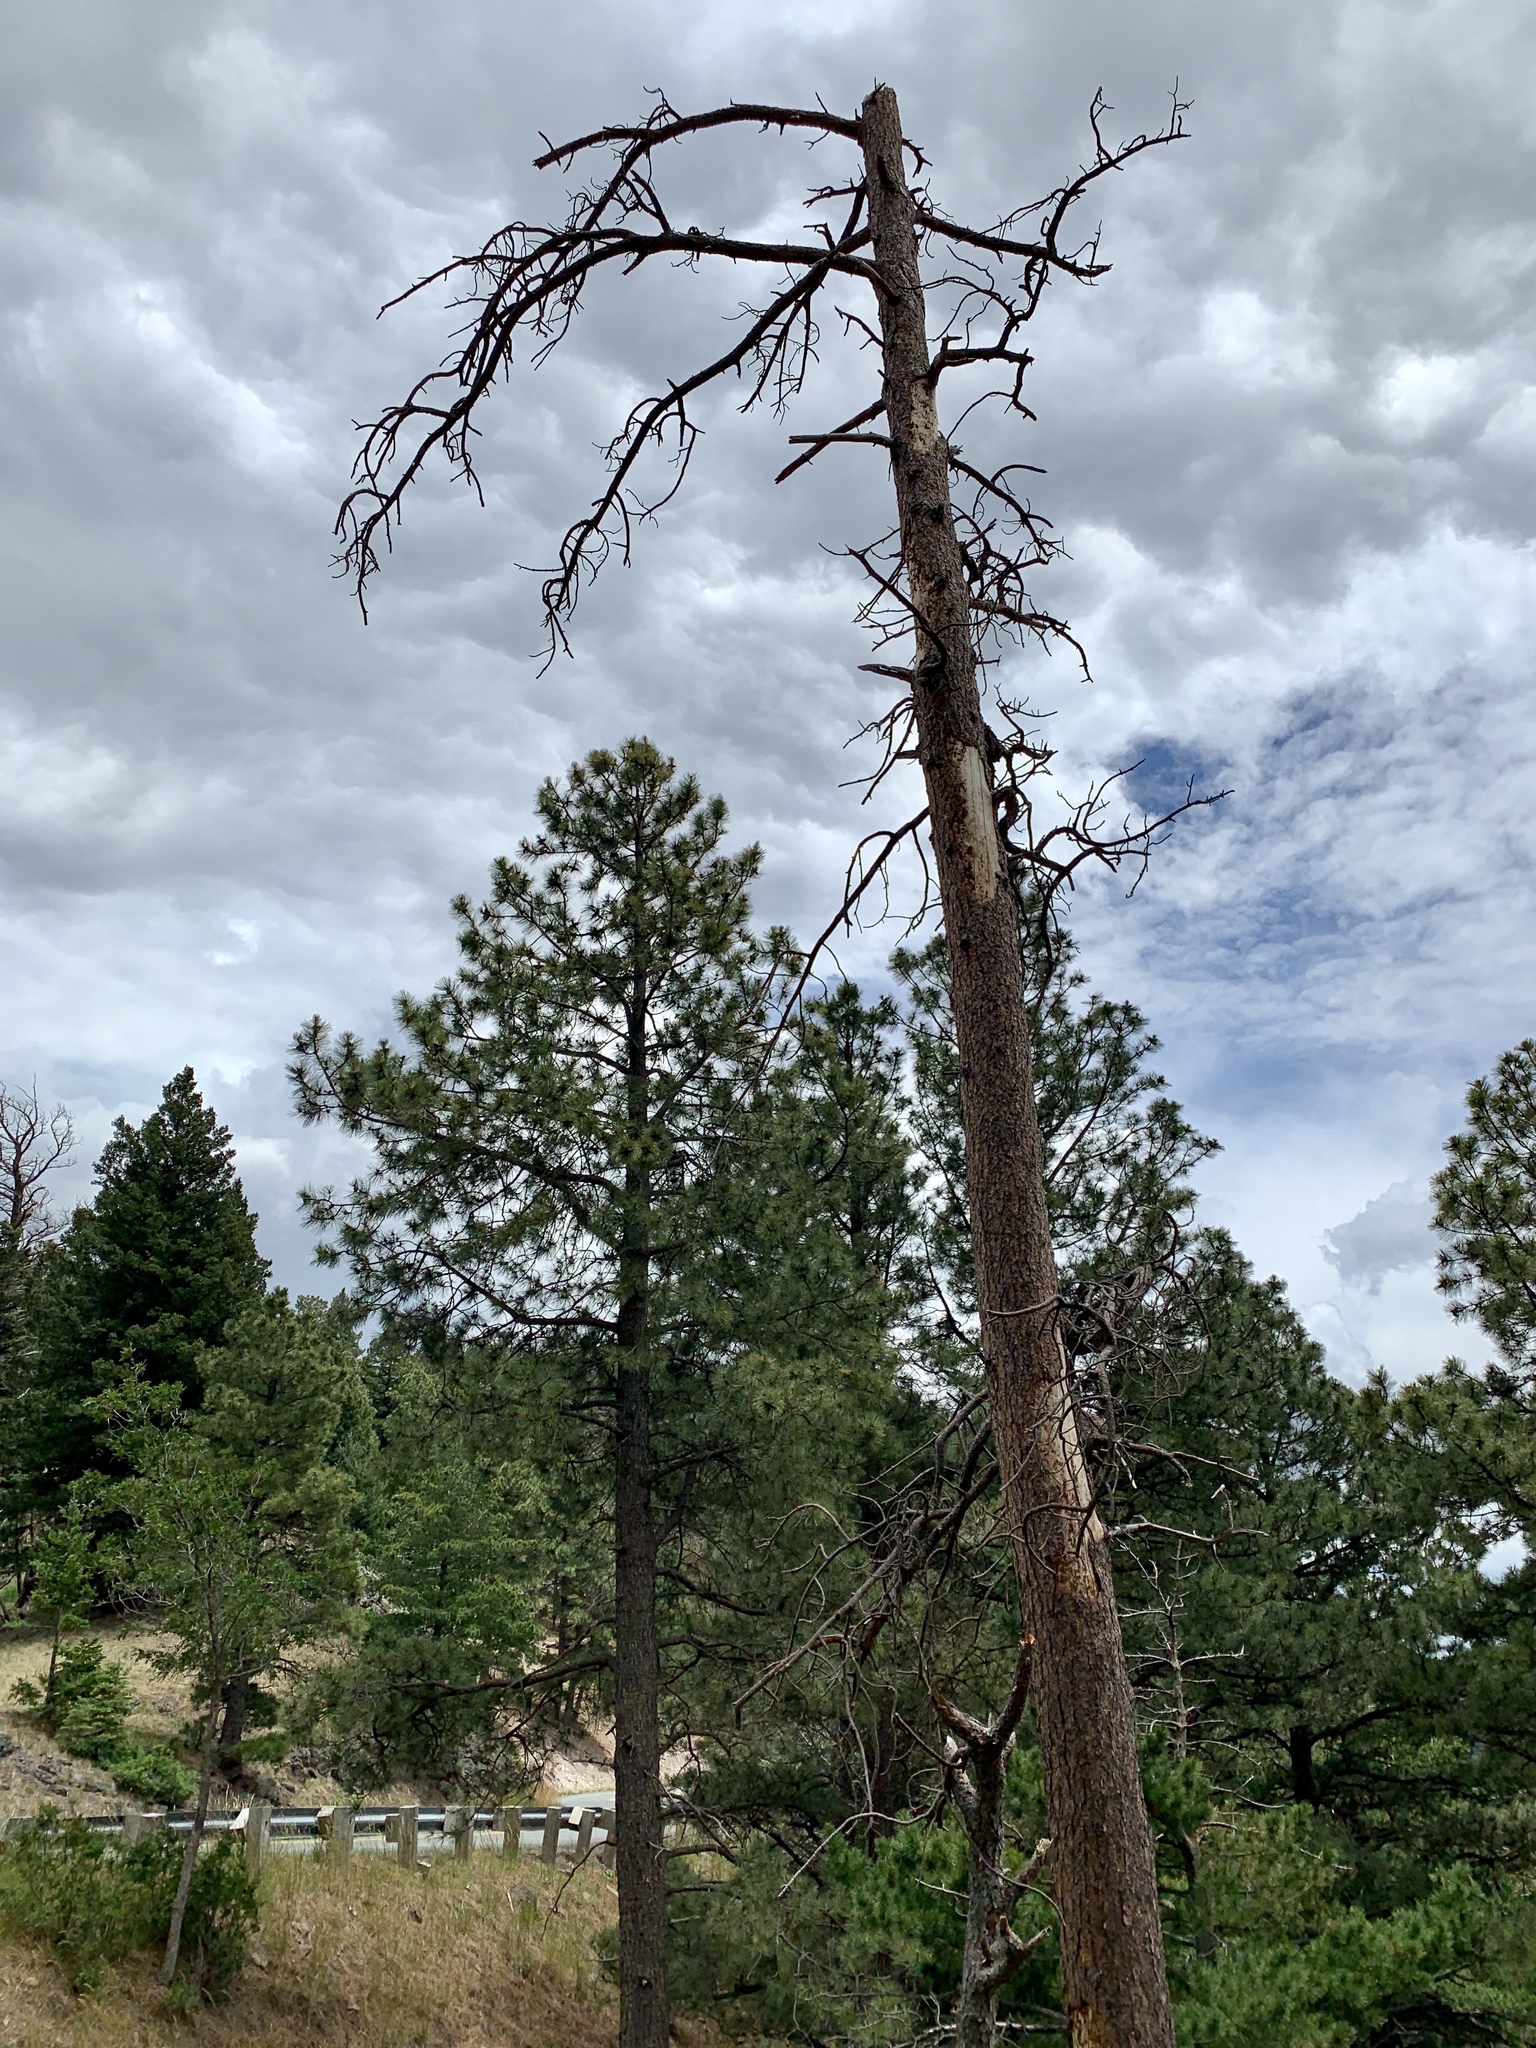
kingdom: Plantae
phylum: Tracheophyta
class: Pinopsida
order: Pinales
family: Pinaceae
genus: Pinus
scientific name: Pinus ponderosa
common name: Western yellow-pine
